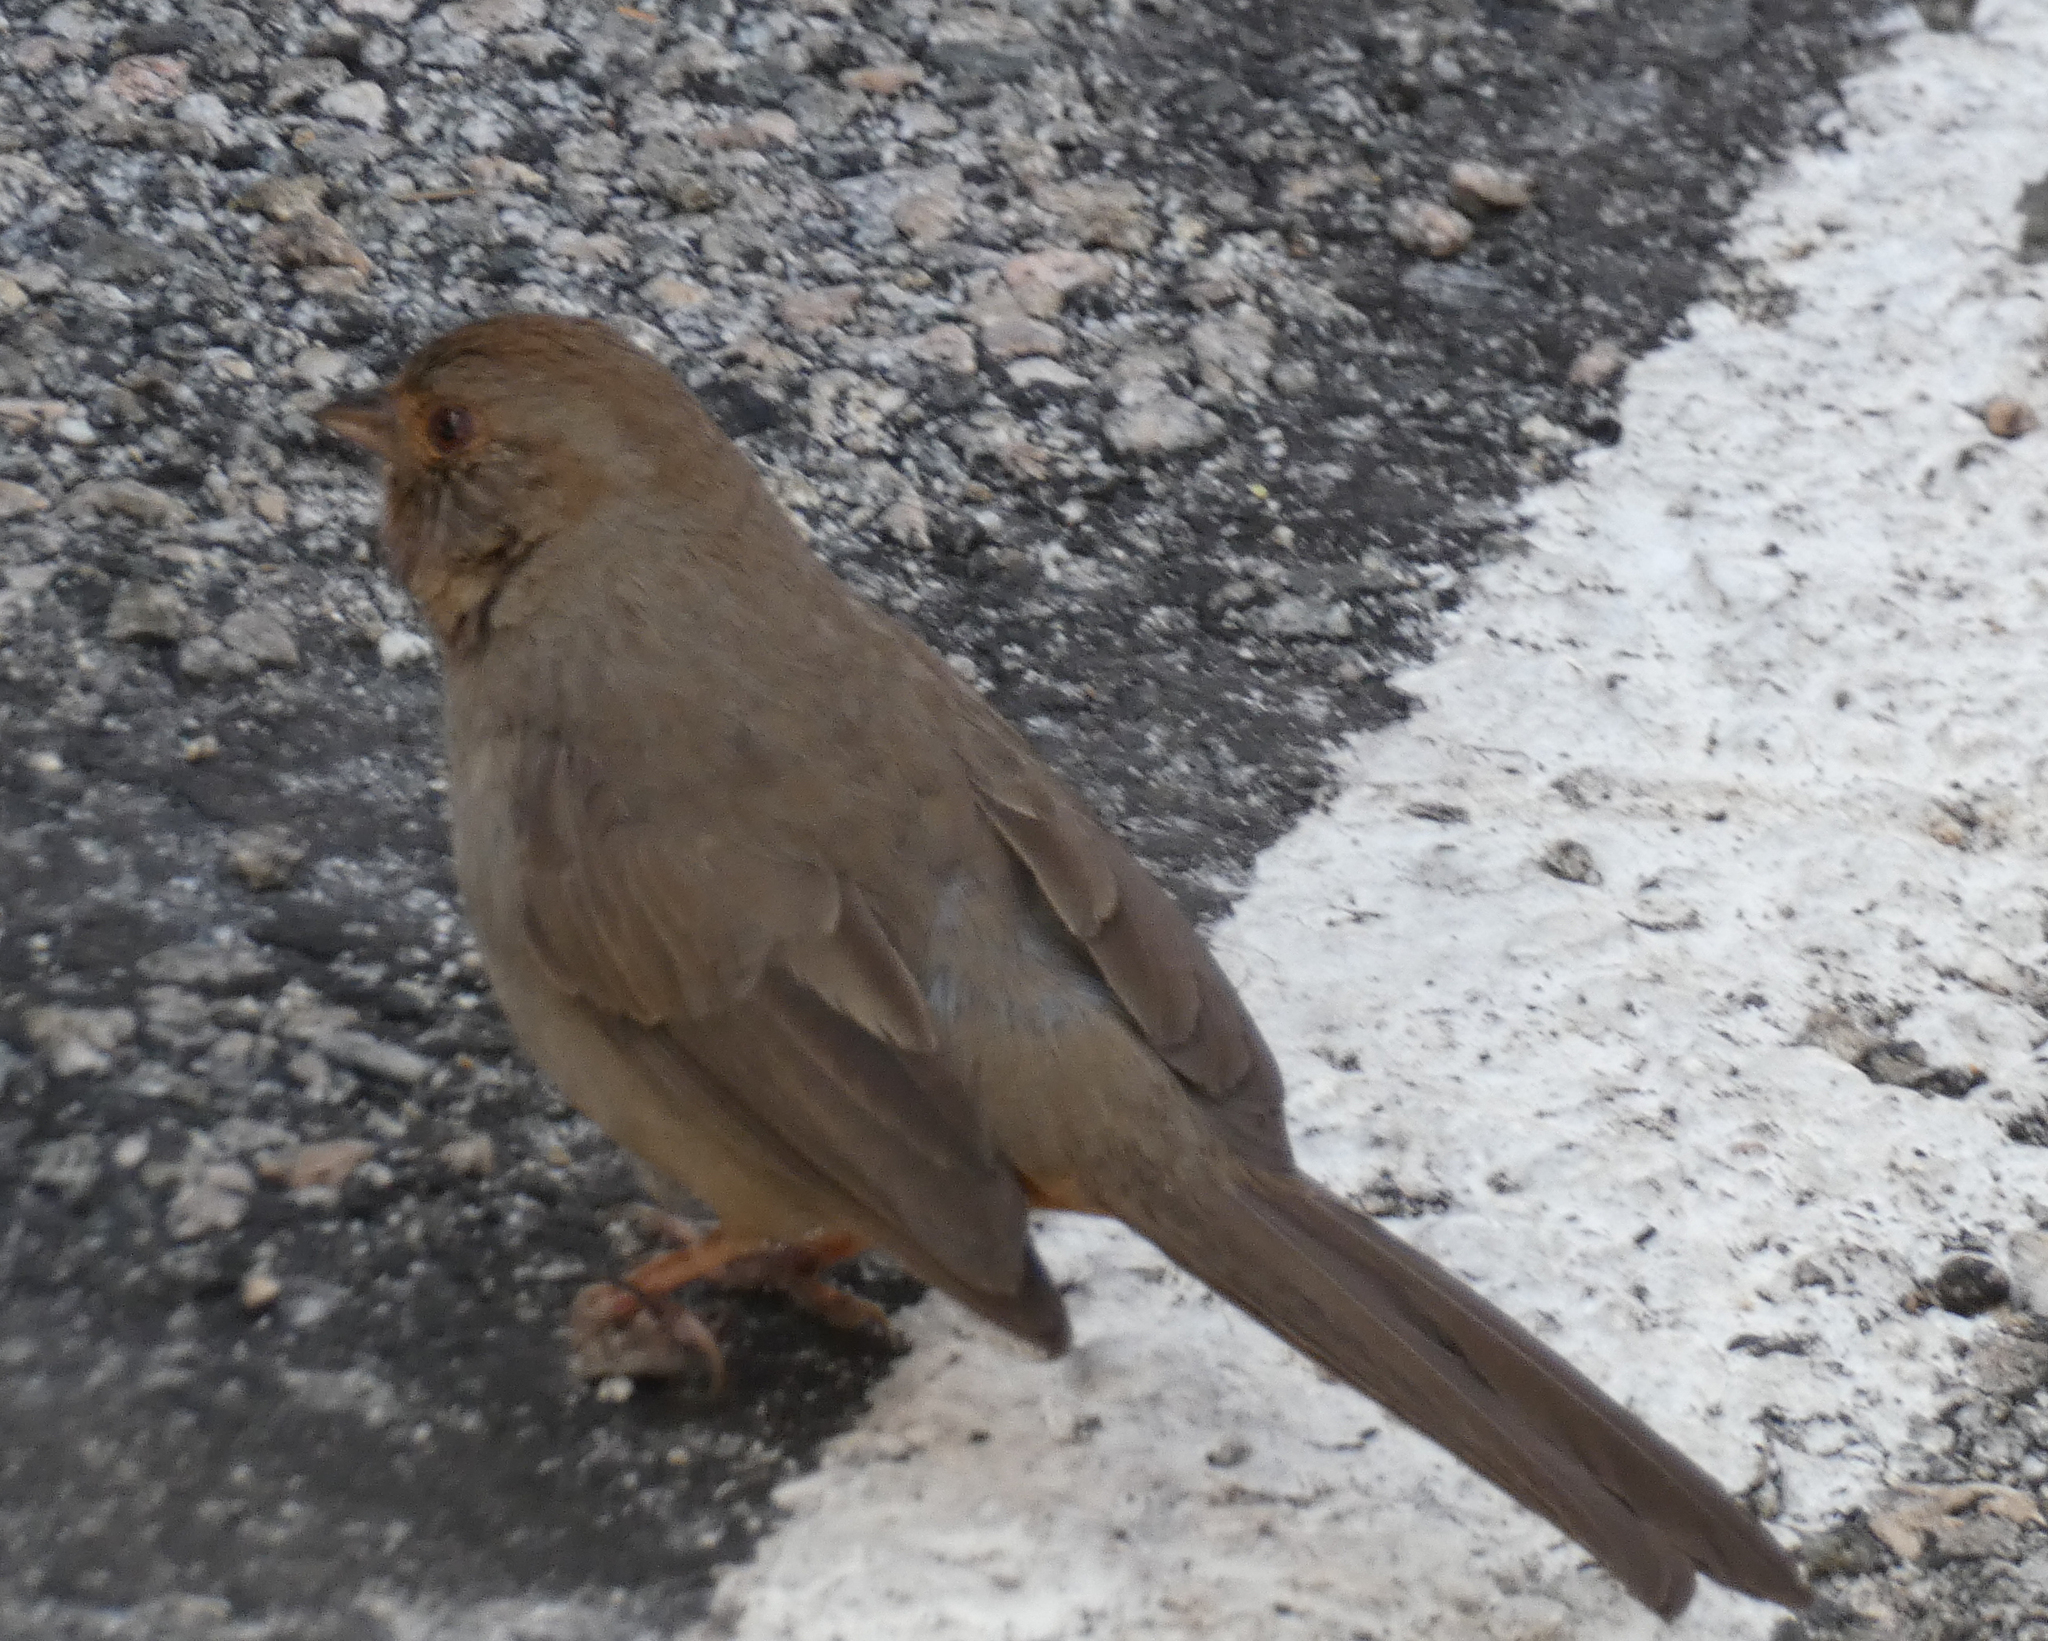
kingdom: Animalia
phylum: Chordata
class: Aves
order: Passeriformes
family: Passerellidae
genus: Melozone
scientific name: Melozone crissalis
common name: California towhee
